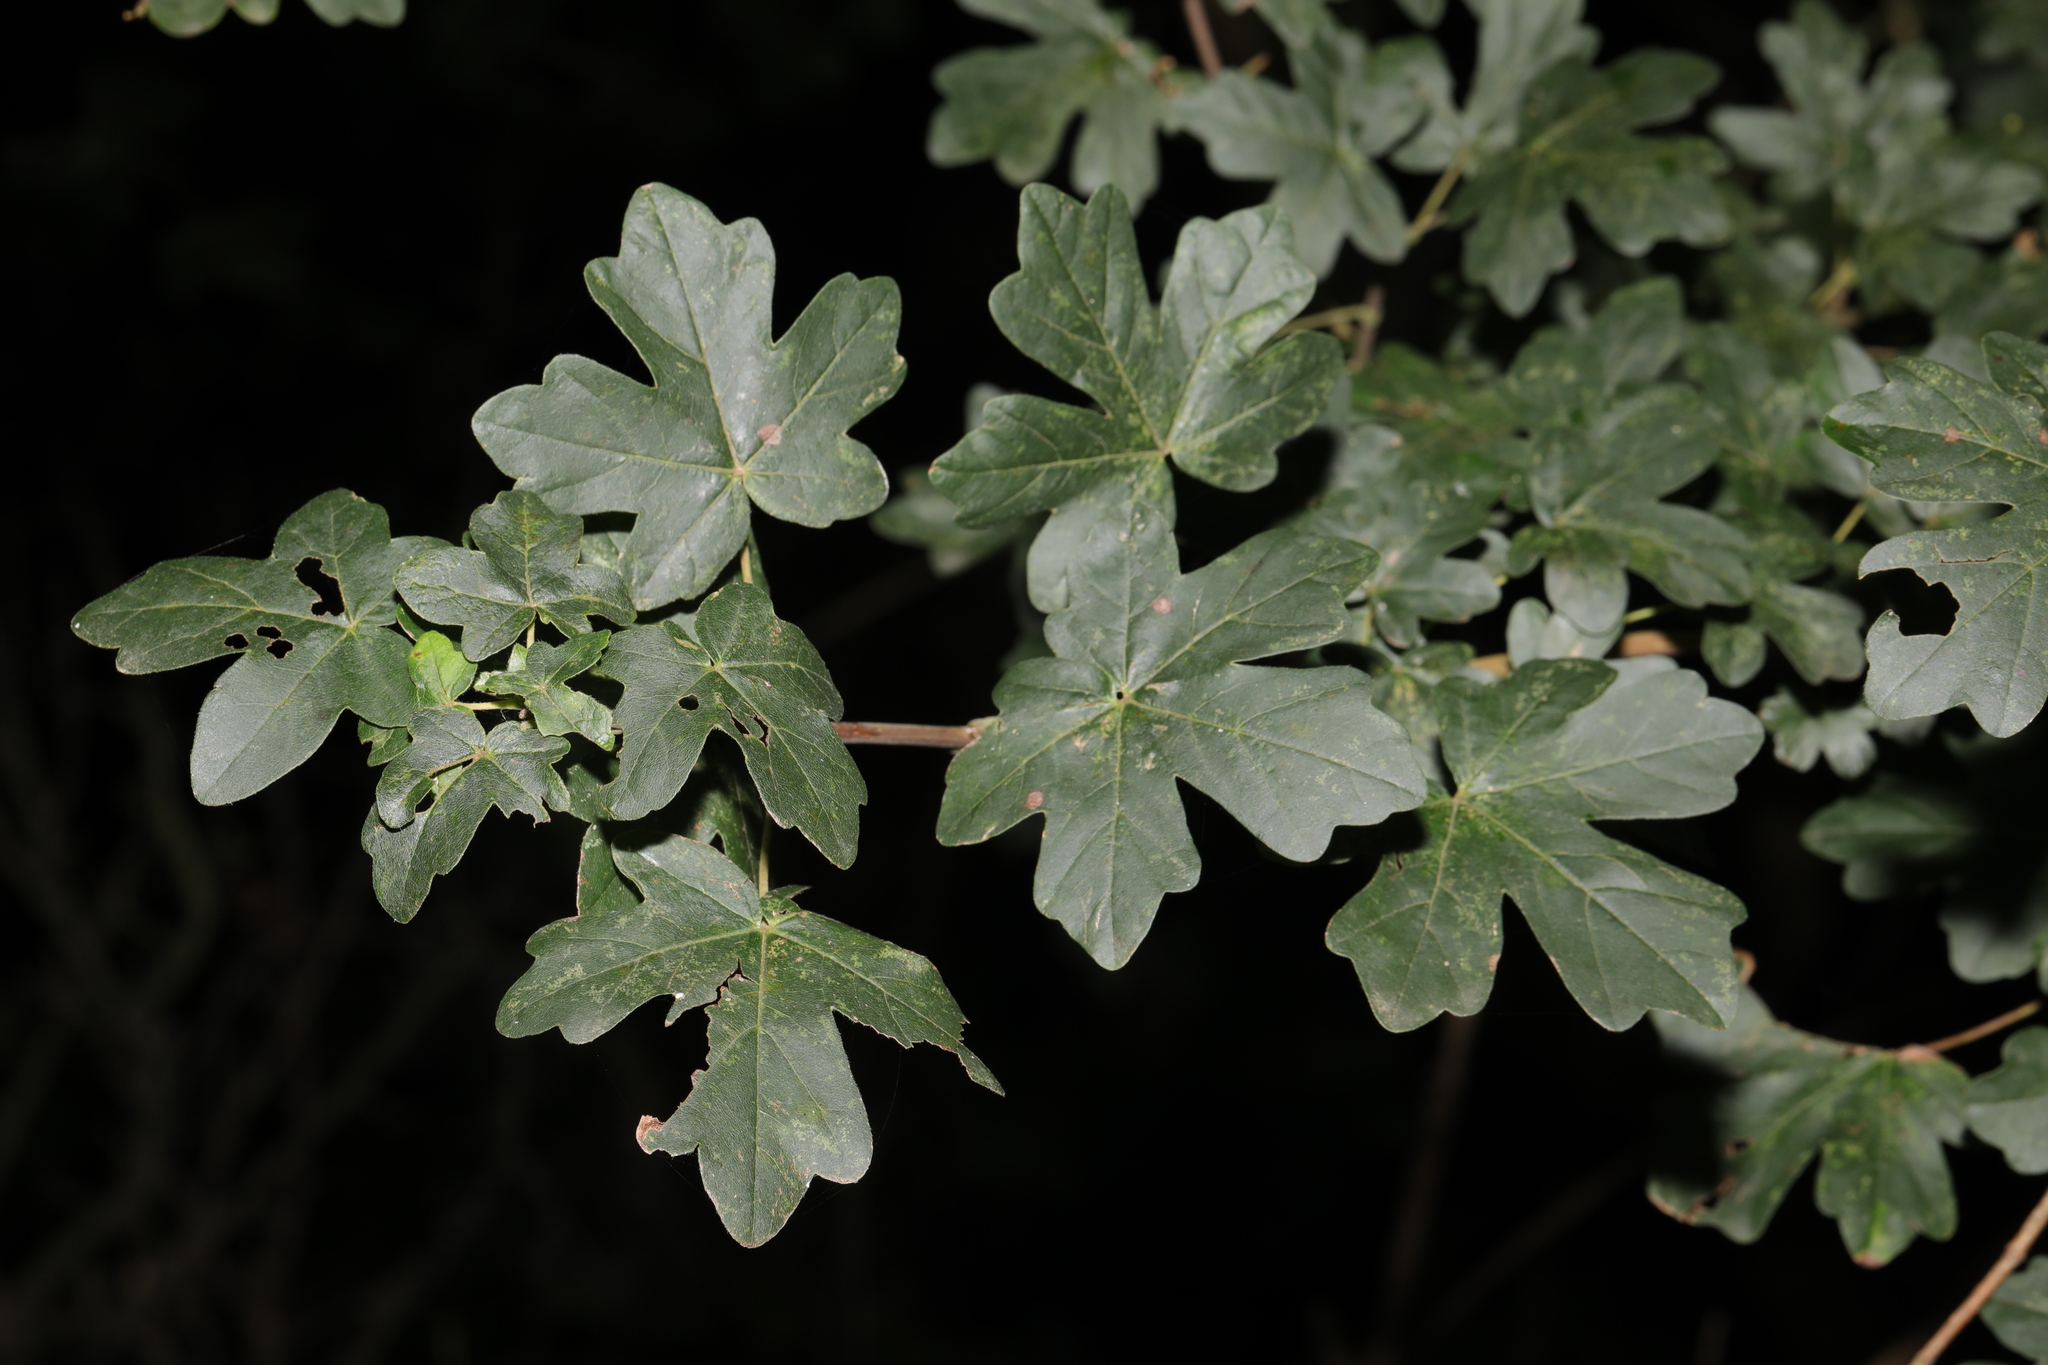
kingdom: Plantae
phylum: Tracheophyta
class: Magnoliopsida
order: Sapindales
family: Sapindaceae
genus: Acer
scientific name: Acer campestre
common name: Field maple
